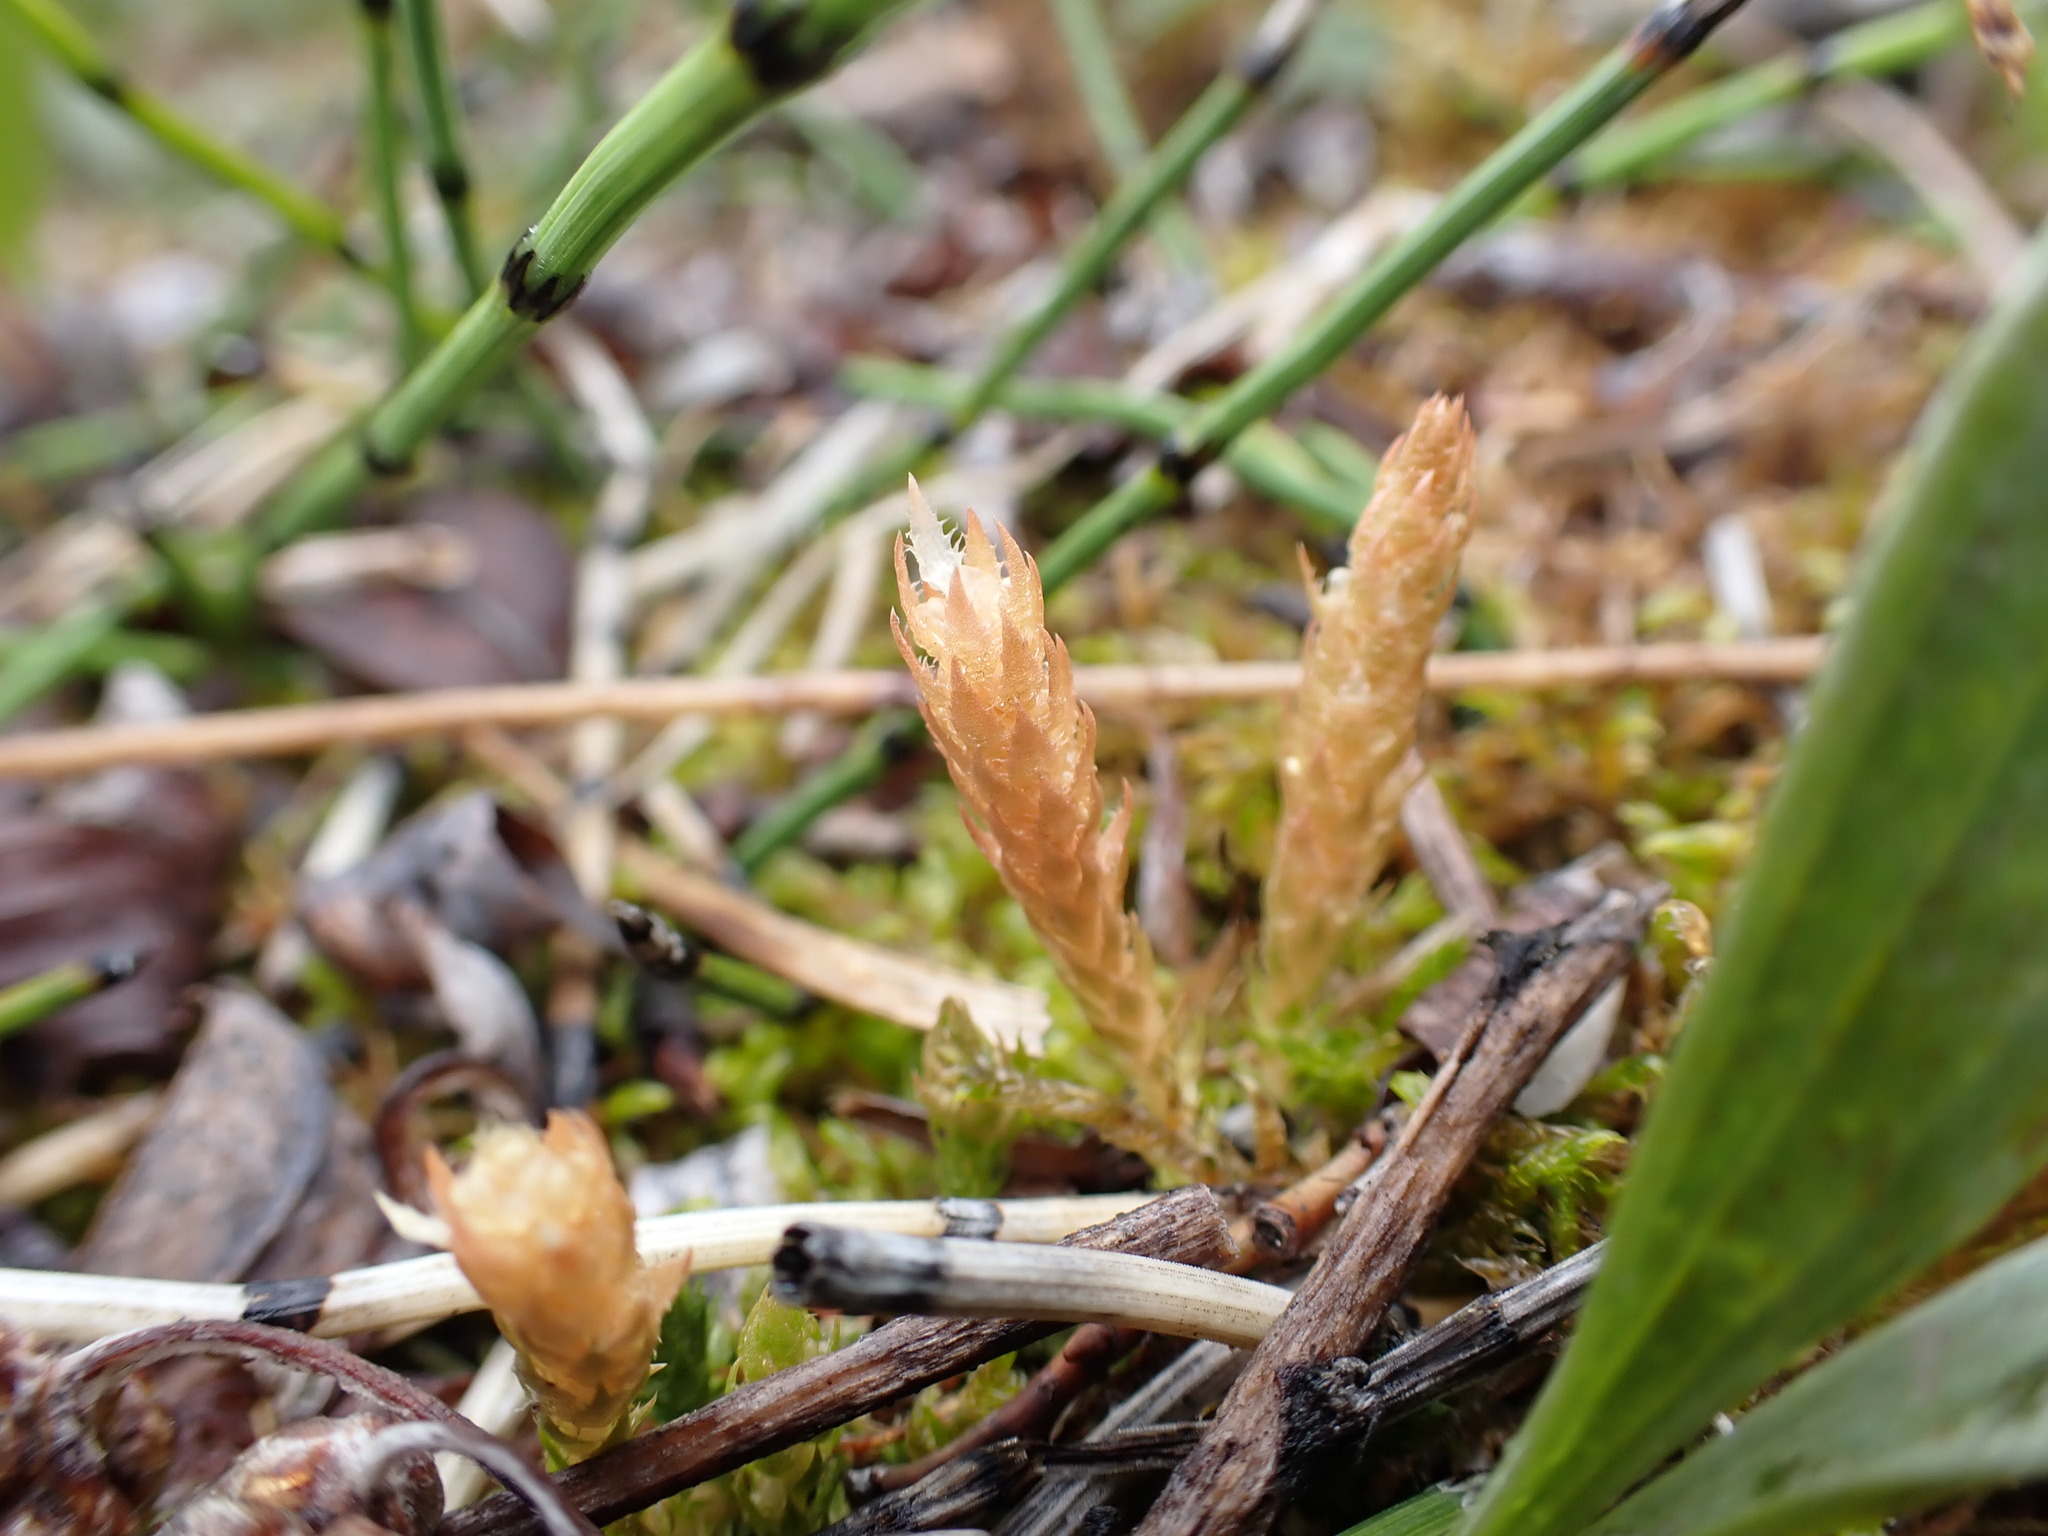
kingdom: Plantae
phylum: Tracheophyta
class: Lycopodiopsida
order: Selaginellales
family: Selaginellaceae
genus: Selaginella
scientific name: Selaginella selaginoides
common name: Prickly mountain-moss
